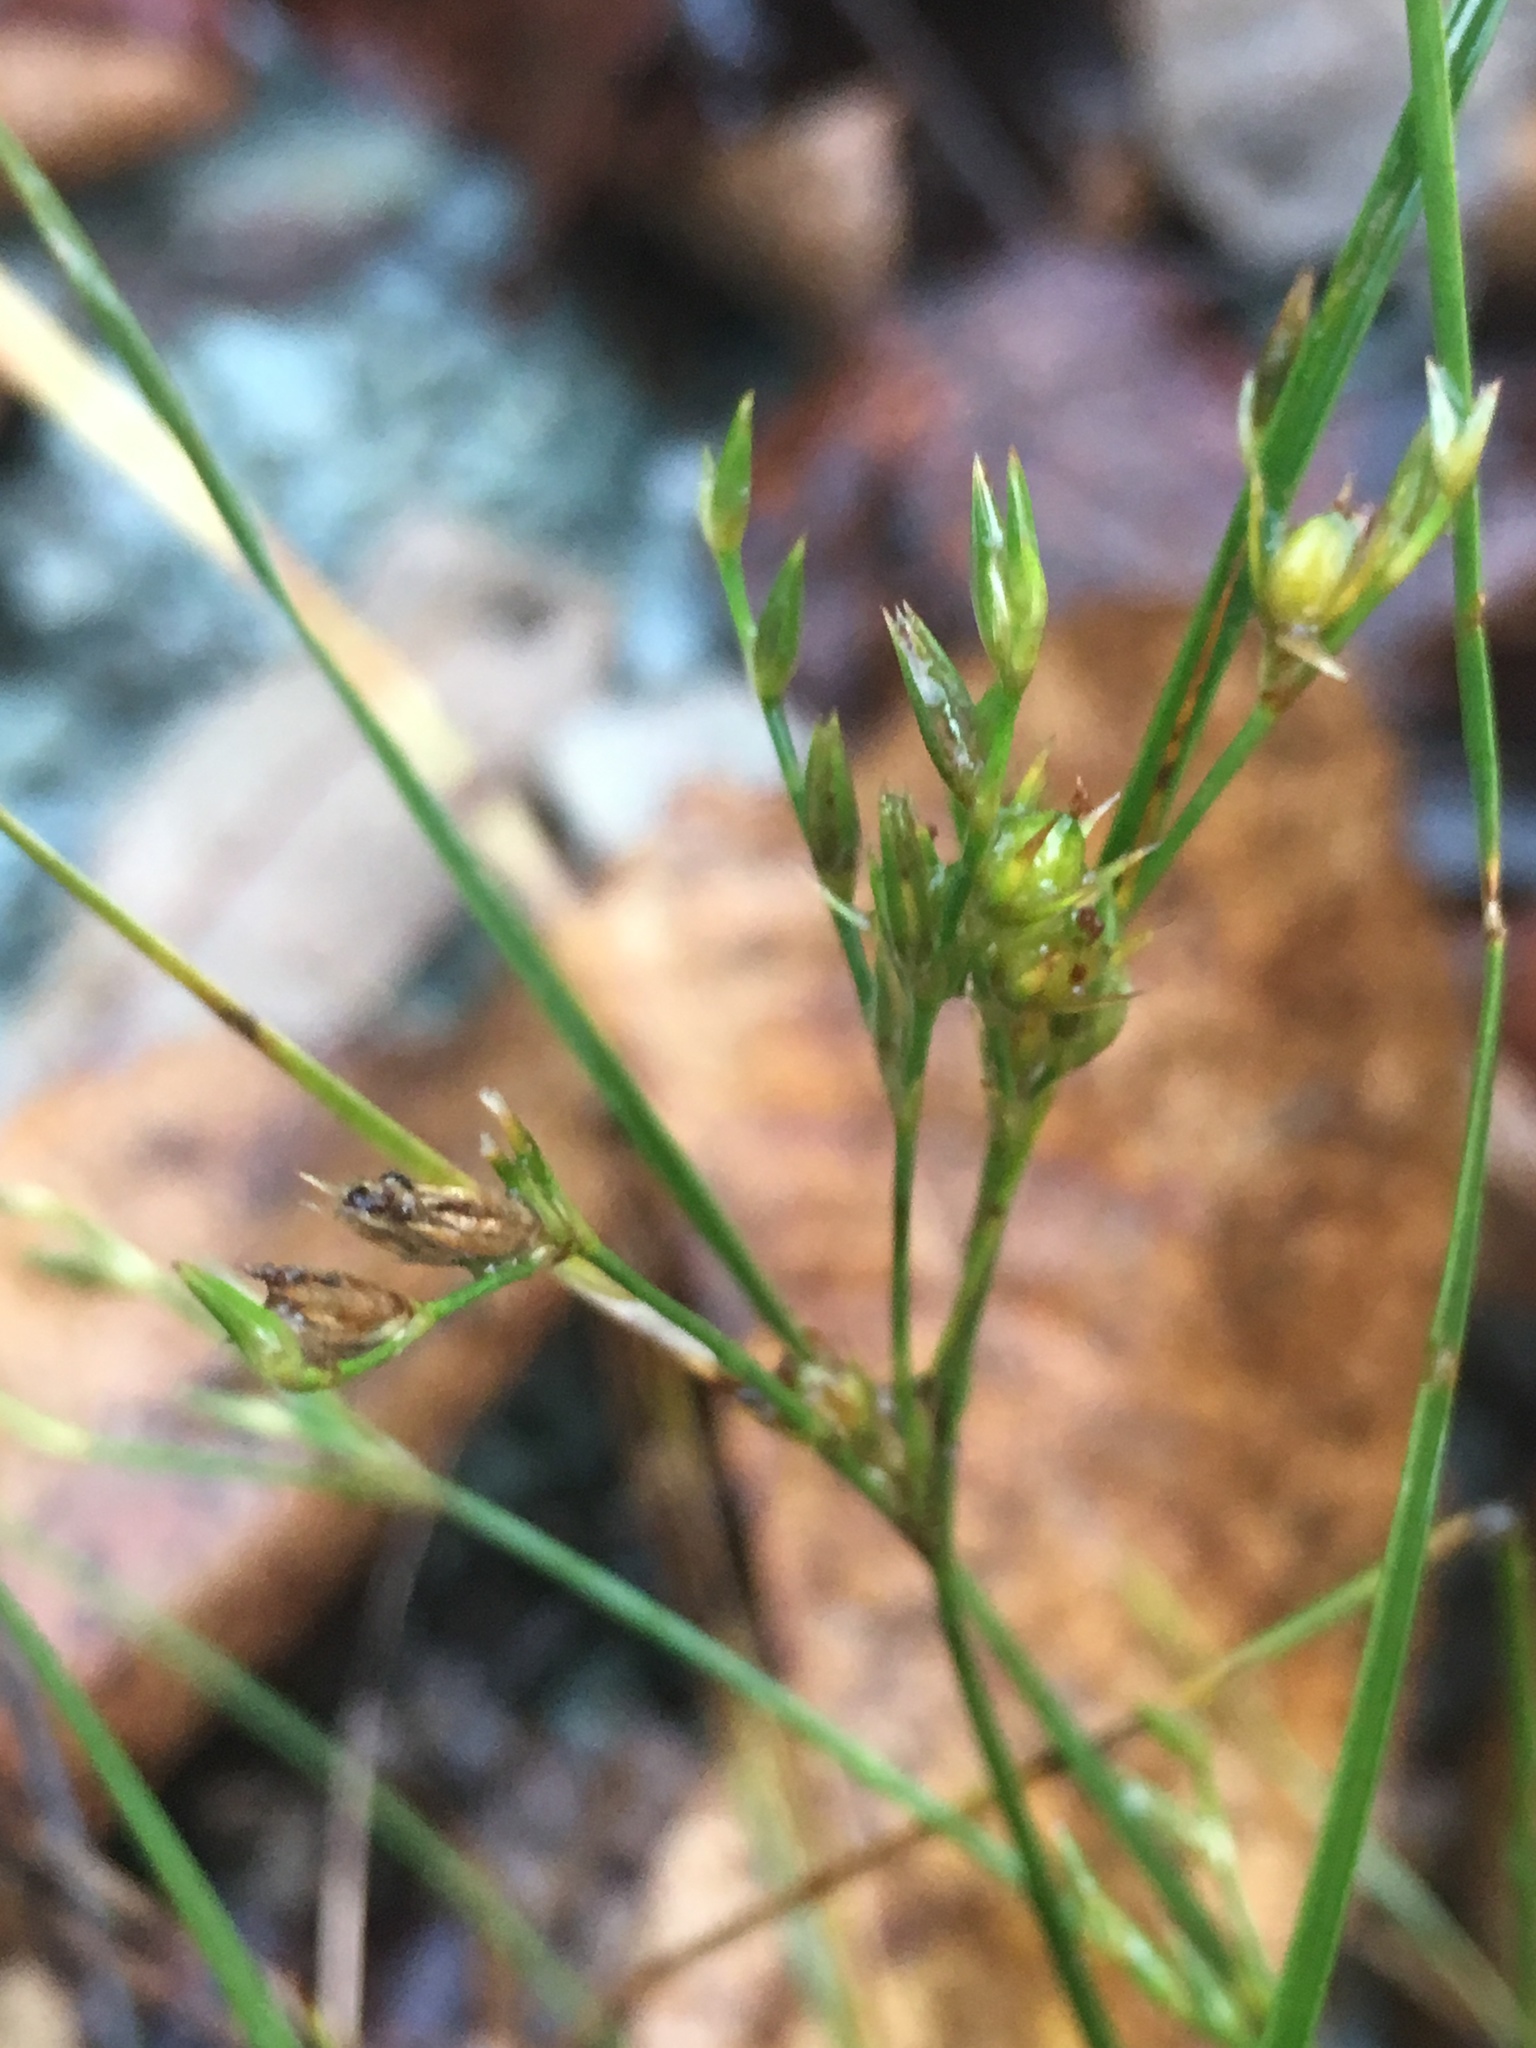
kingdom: Plantae
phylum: Tracheophyta
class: Liliopsida
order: Poales
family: Juncaceae
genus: Juncus
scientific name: Juncus tenuis
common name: Slender rush
